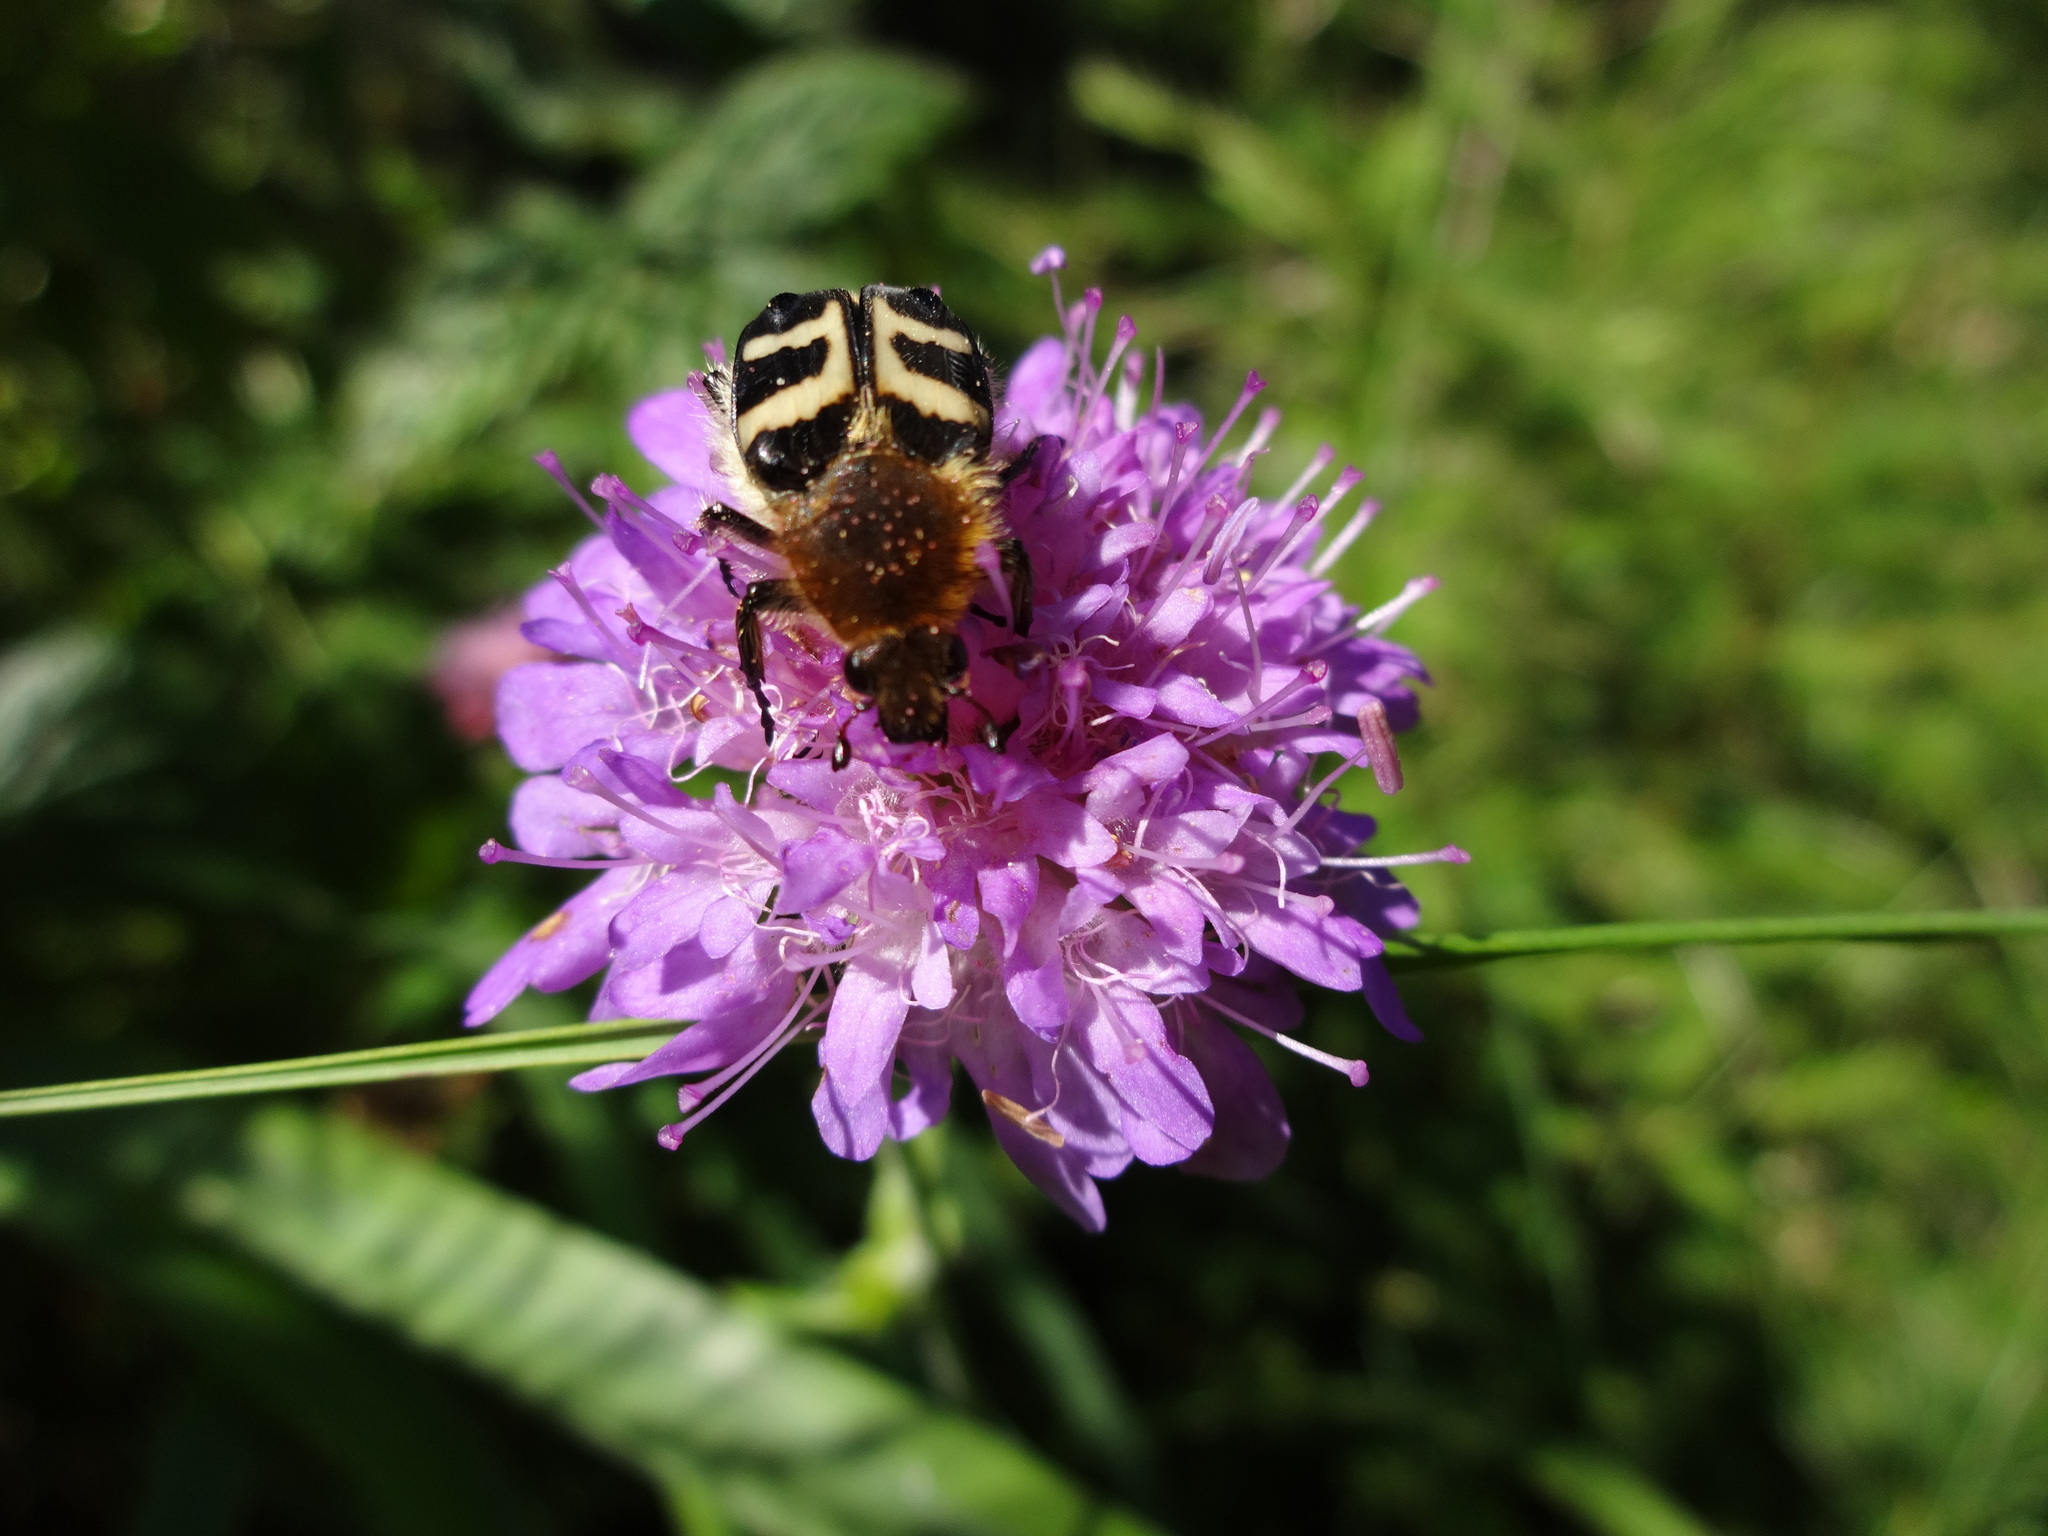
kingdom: Animalia
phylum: Arthropoda
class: Insecta
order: Coleoptera
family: Scarabaeidae
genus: Trichius
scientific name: Trichius fasciatus
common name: Bee beetle
